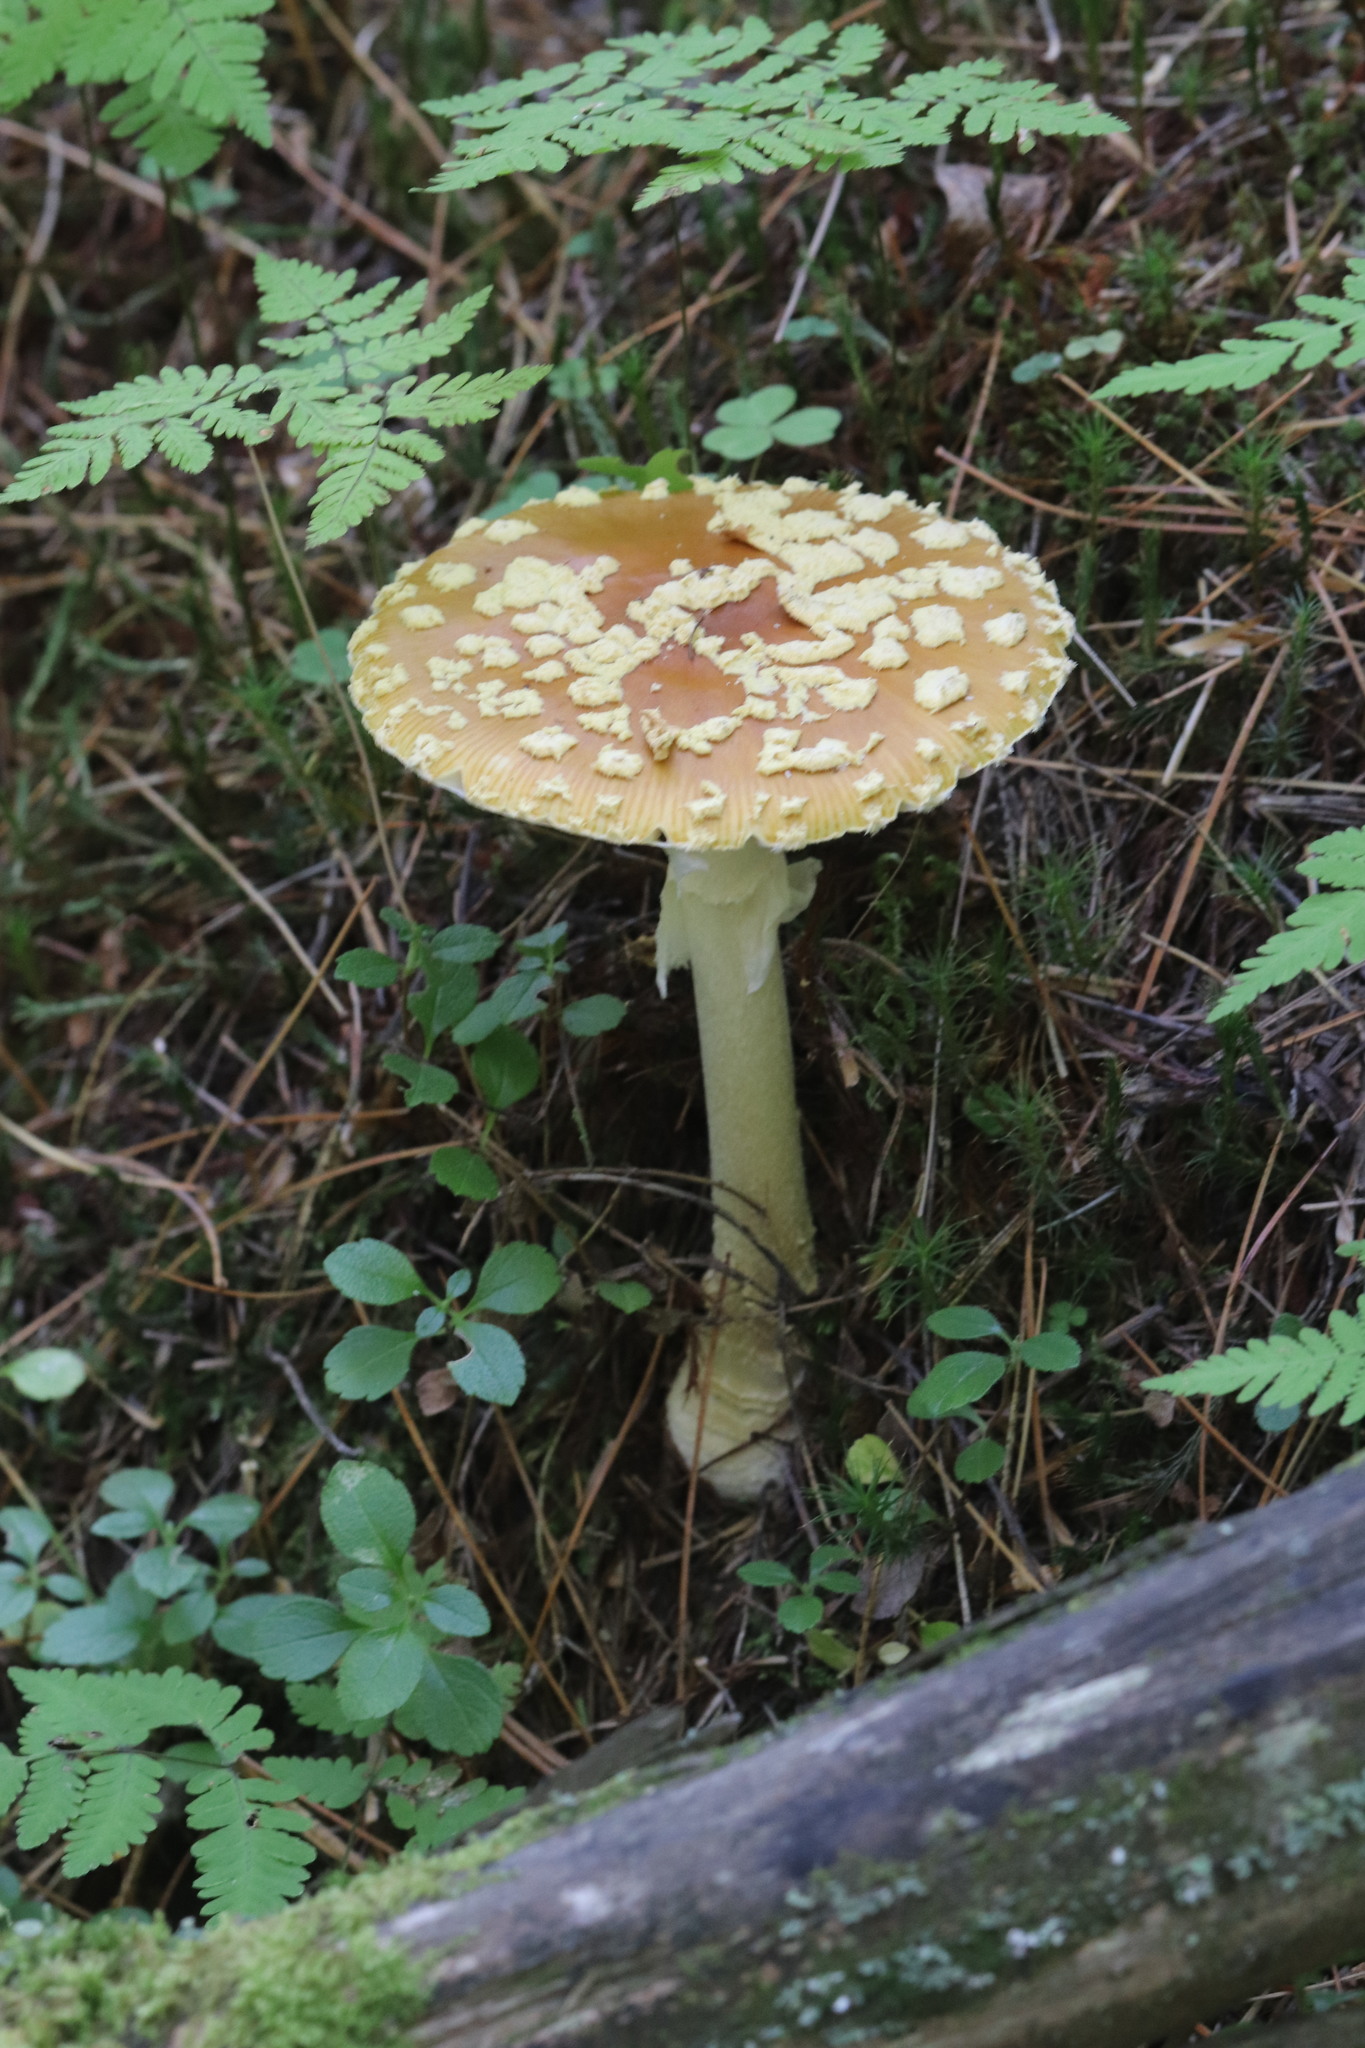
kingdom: Fungi
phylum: Basidiomycota
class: Agaricomycetes
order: Agaricales
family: Amanitaceae
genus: Amanita
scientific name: Amanita regalis
